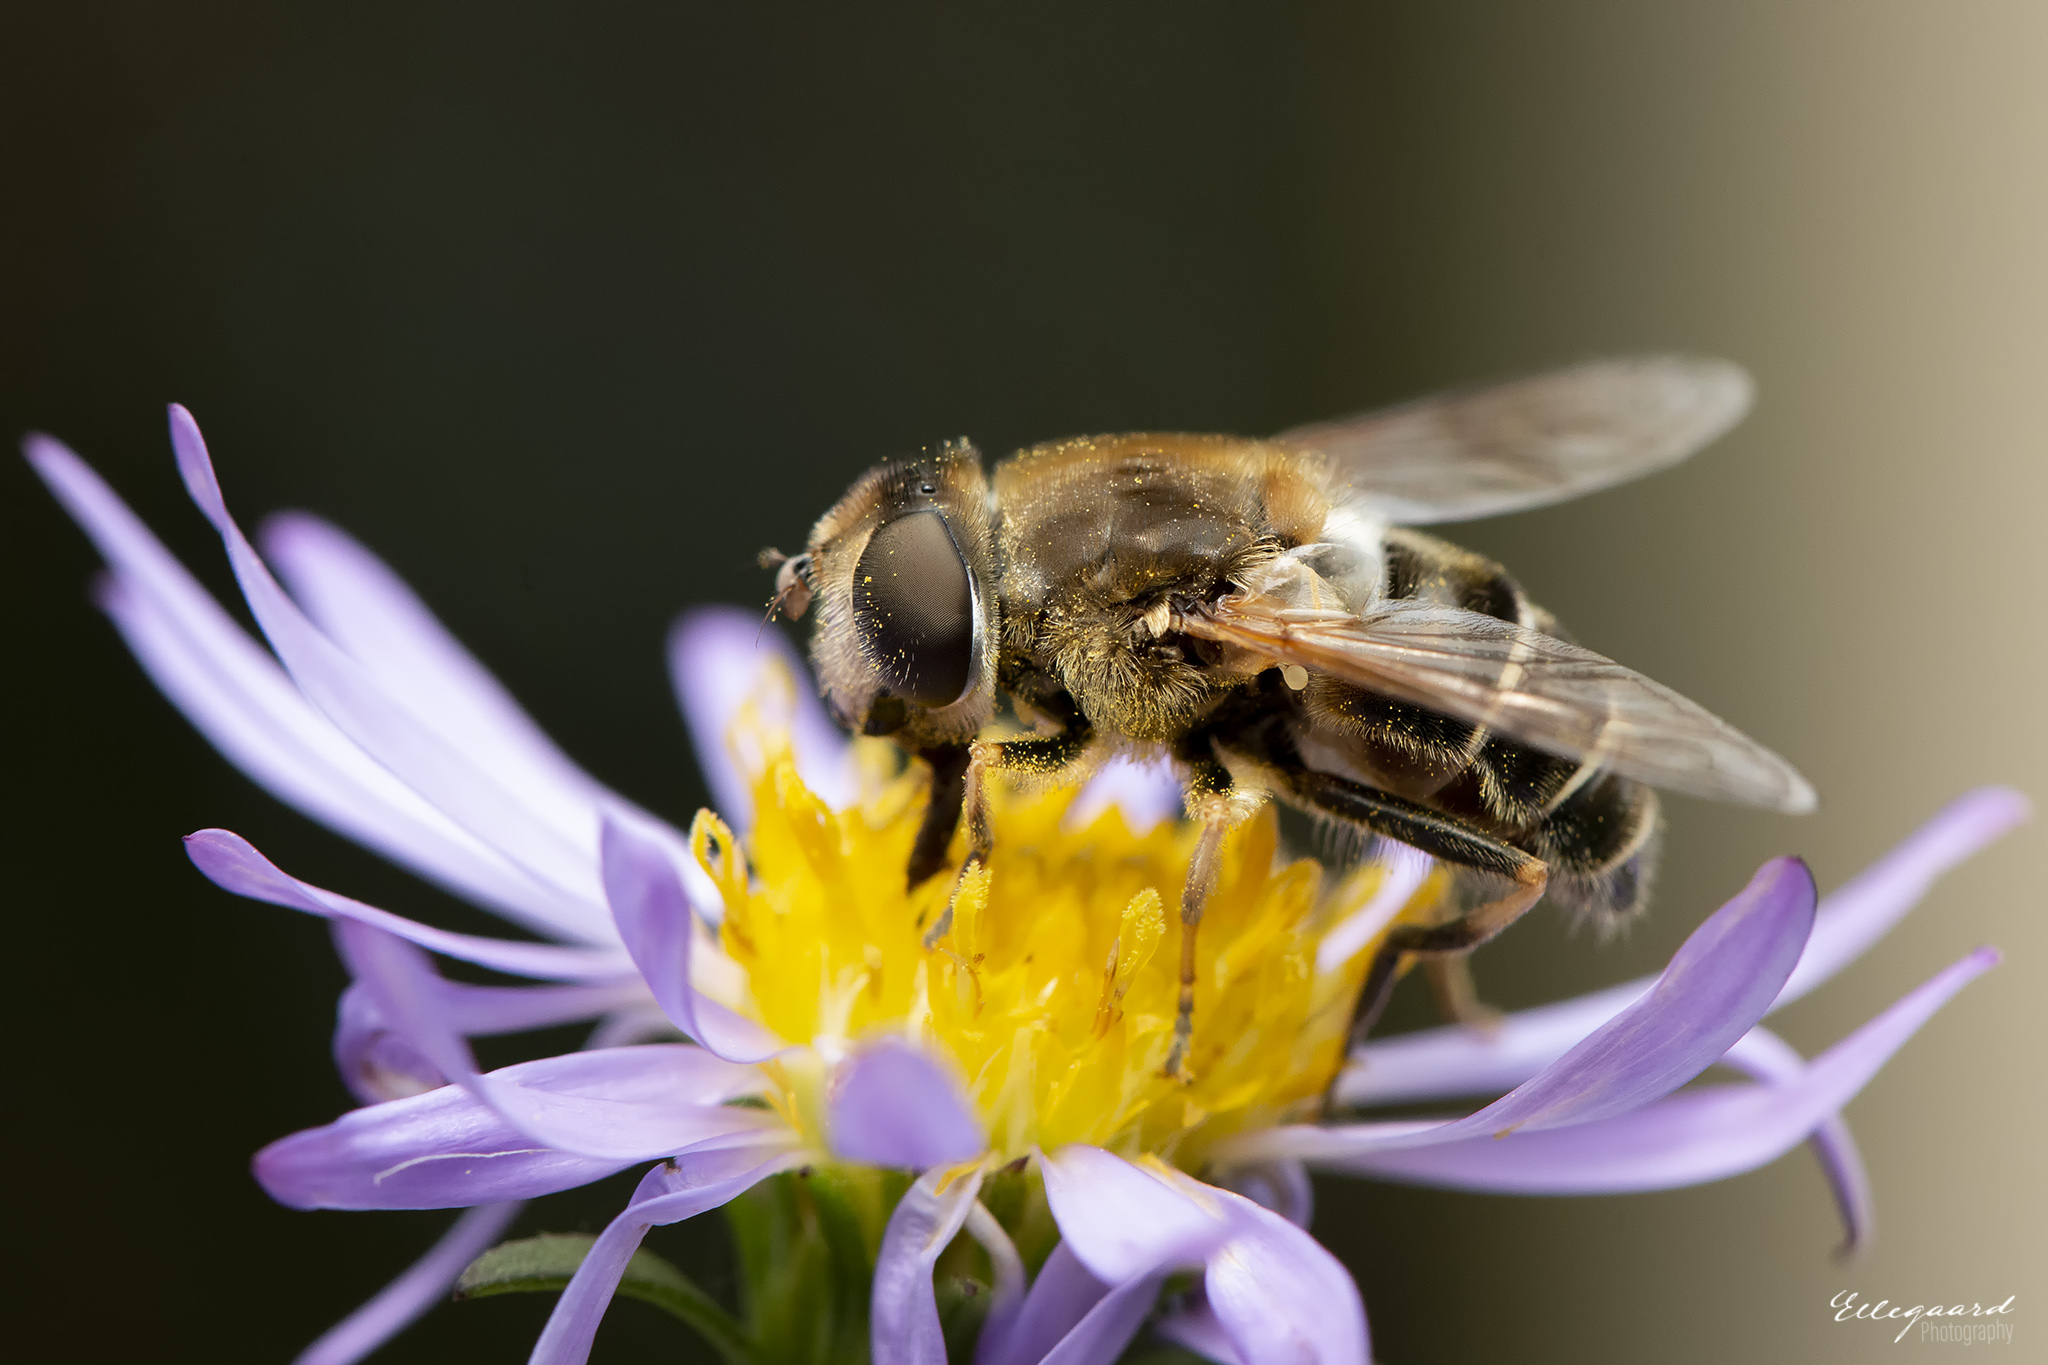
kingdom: Animalia
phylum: Arthropoda
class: Insecta
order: Diptera
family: Syrphidae
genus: Eristalis
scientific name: Eristalis nemorum
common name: Orange-spined drone fly
